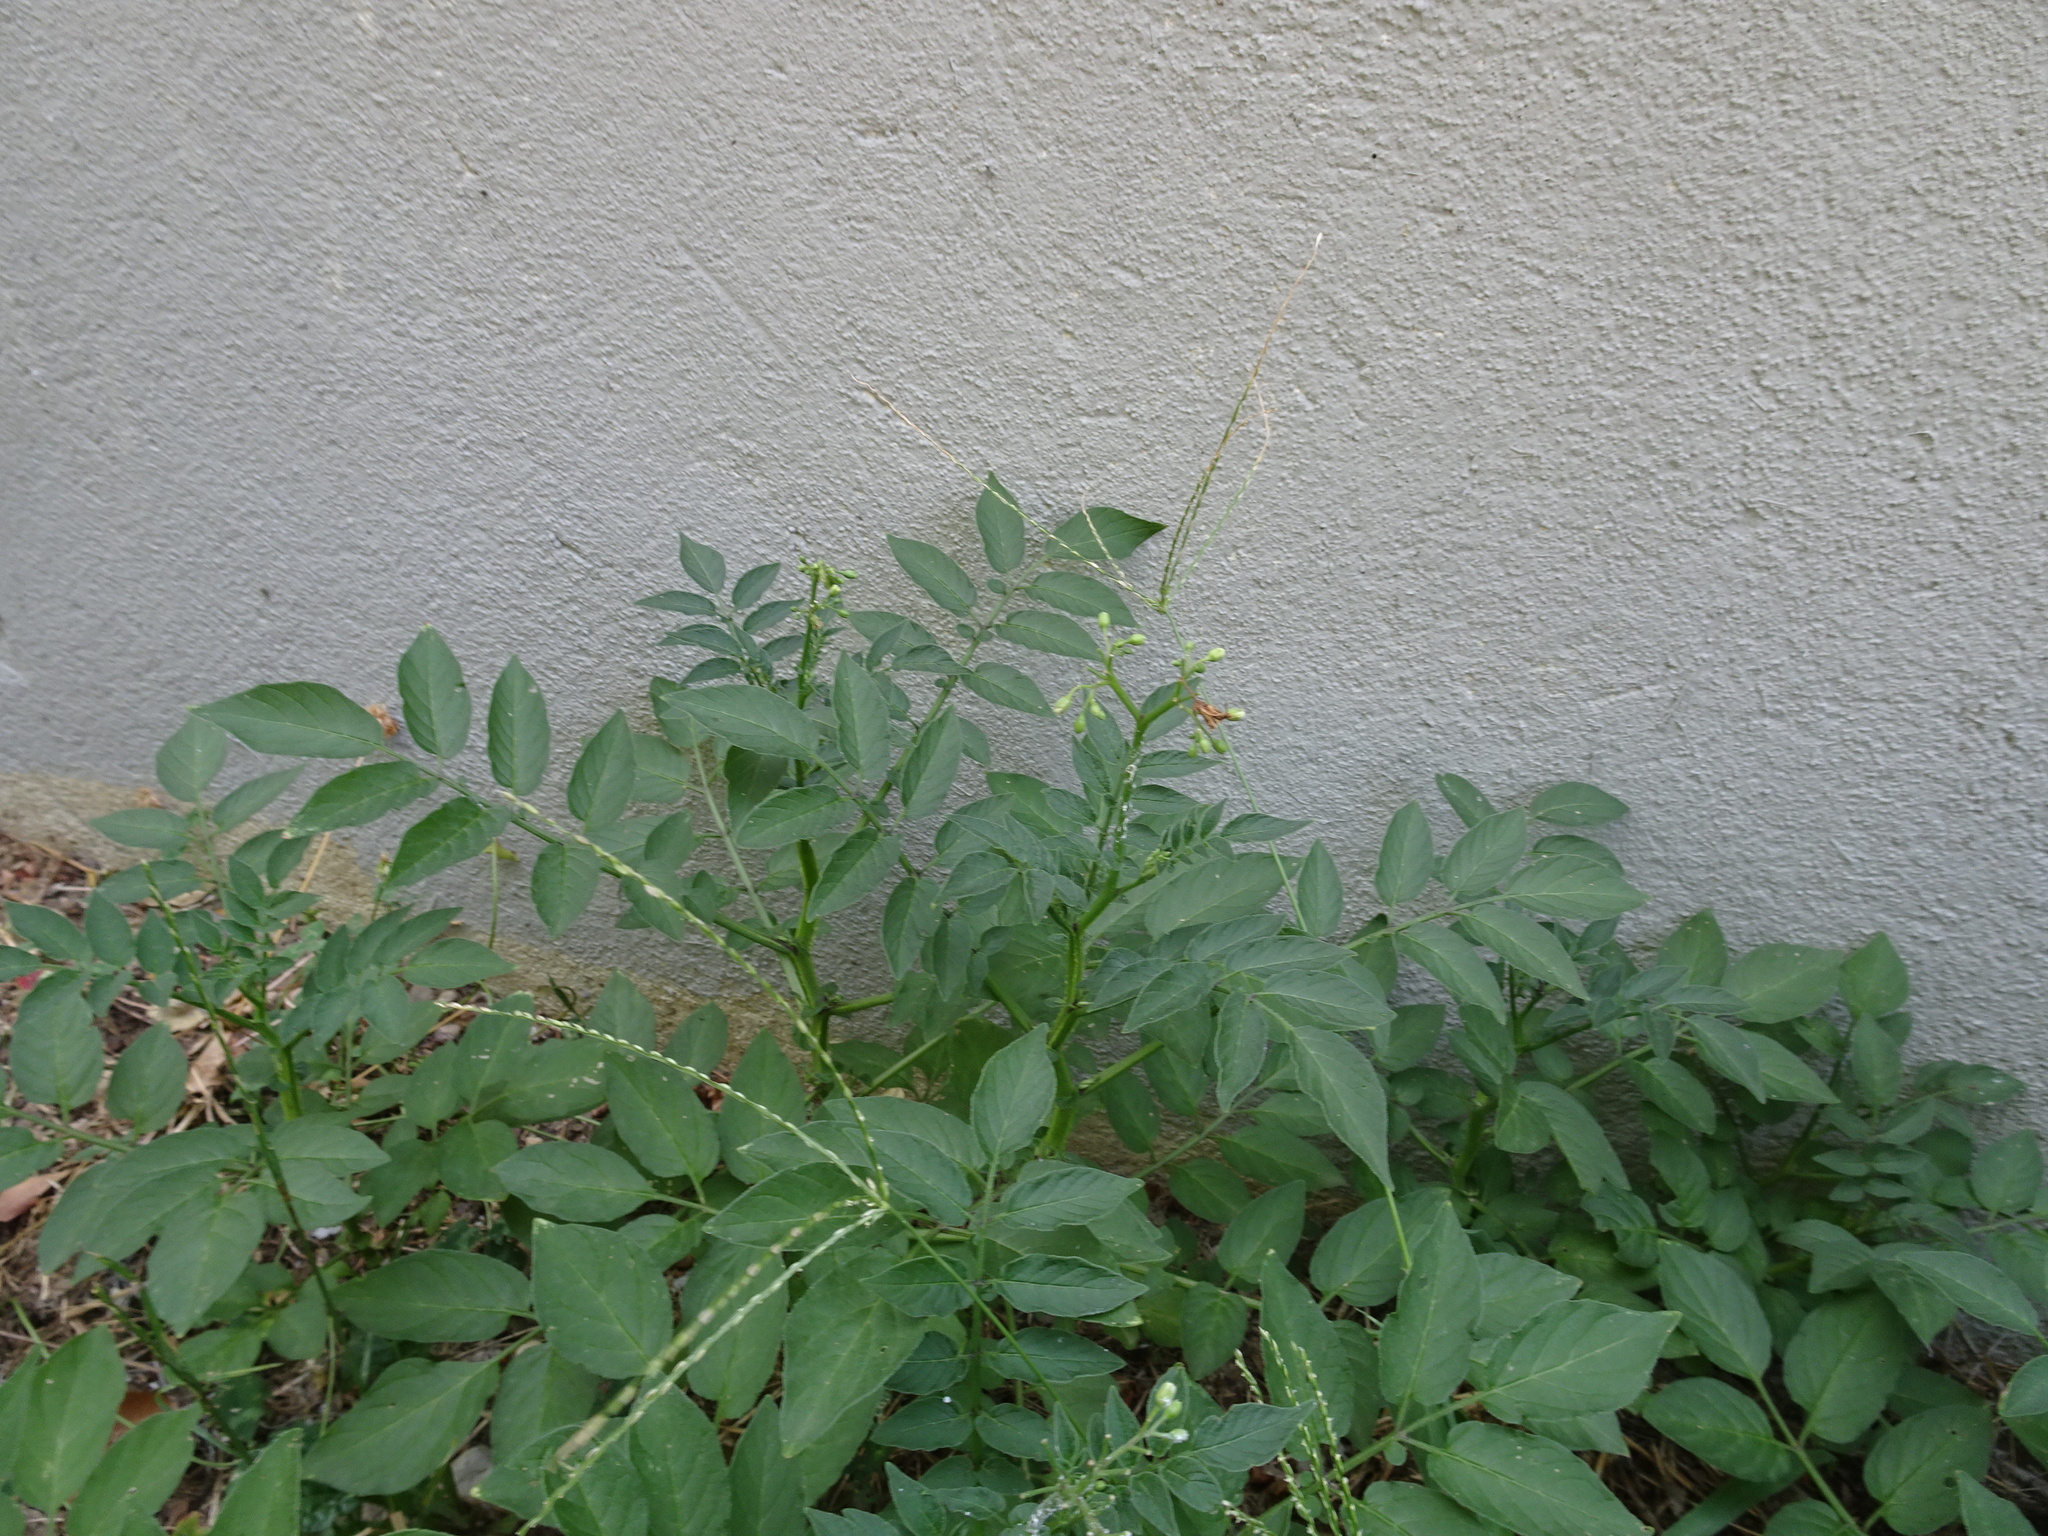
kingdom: Plantae
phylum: Tracheophyta
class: Magnoliopsida
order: Solanales
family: Solanaceae
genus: Solanum
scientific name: Solanum chacoense
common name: Chaco potato
